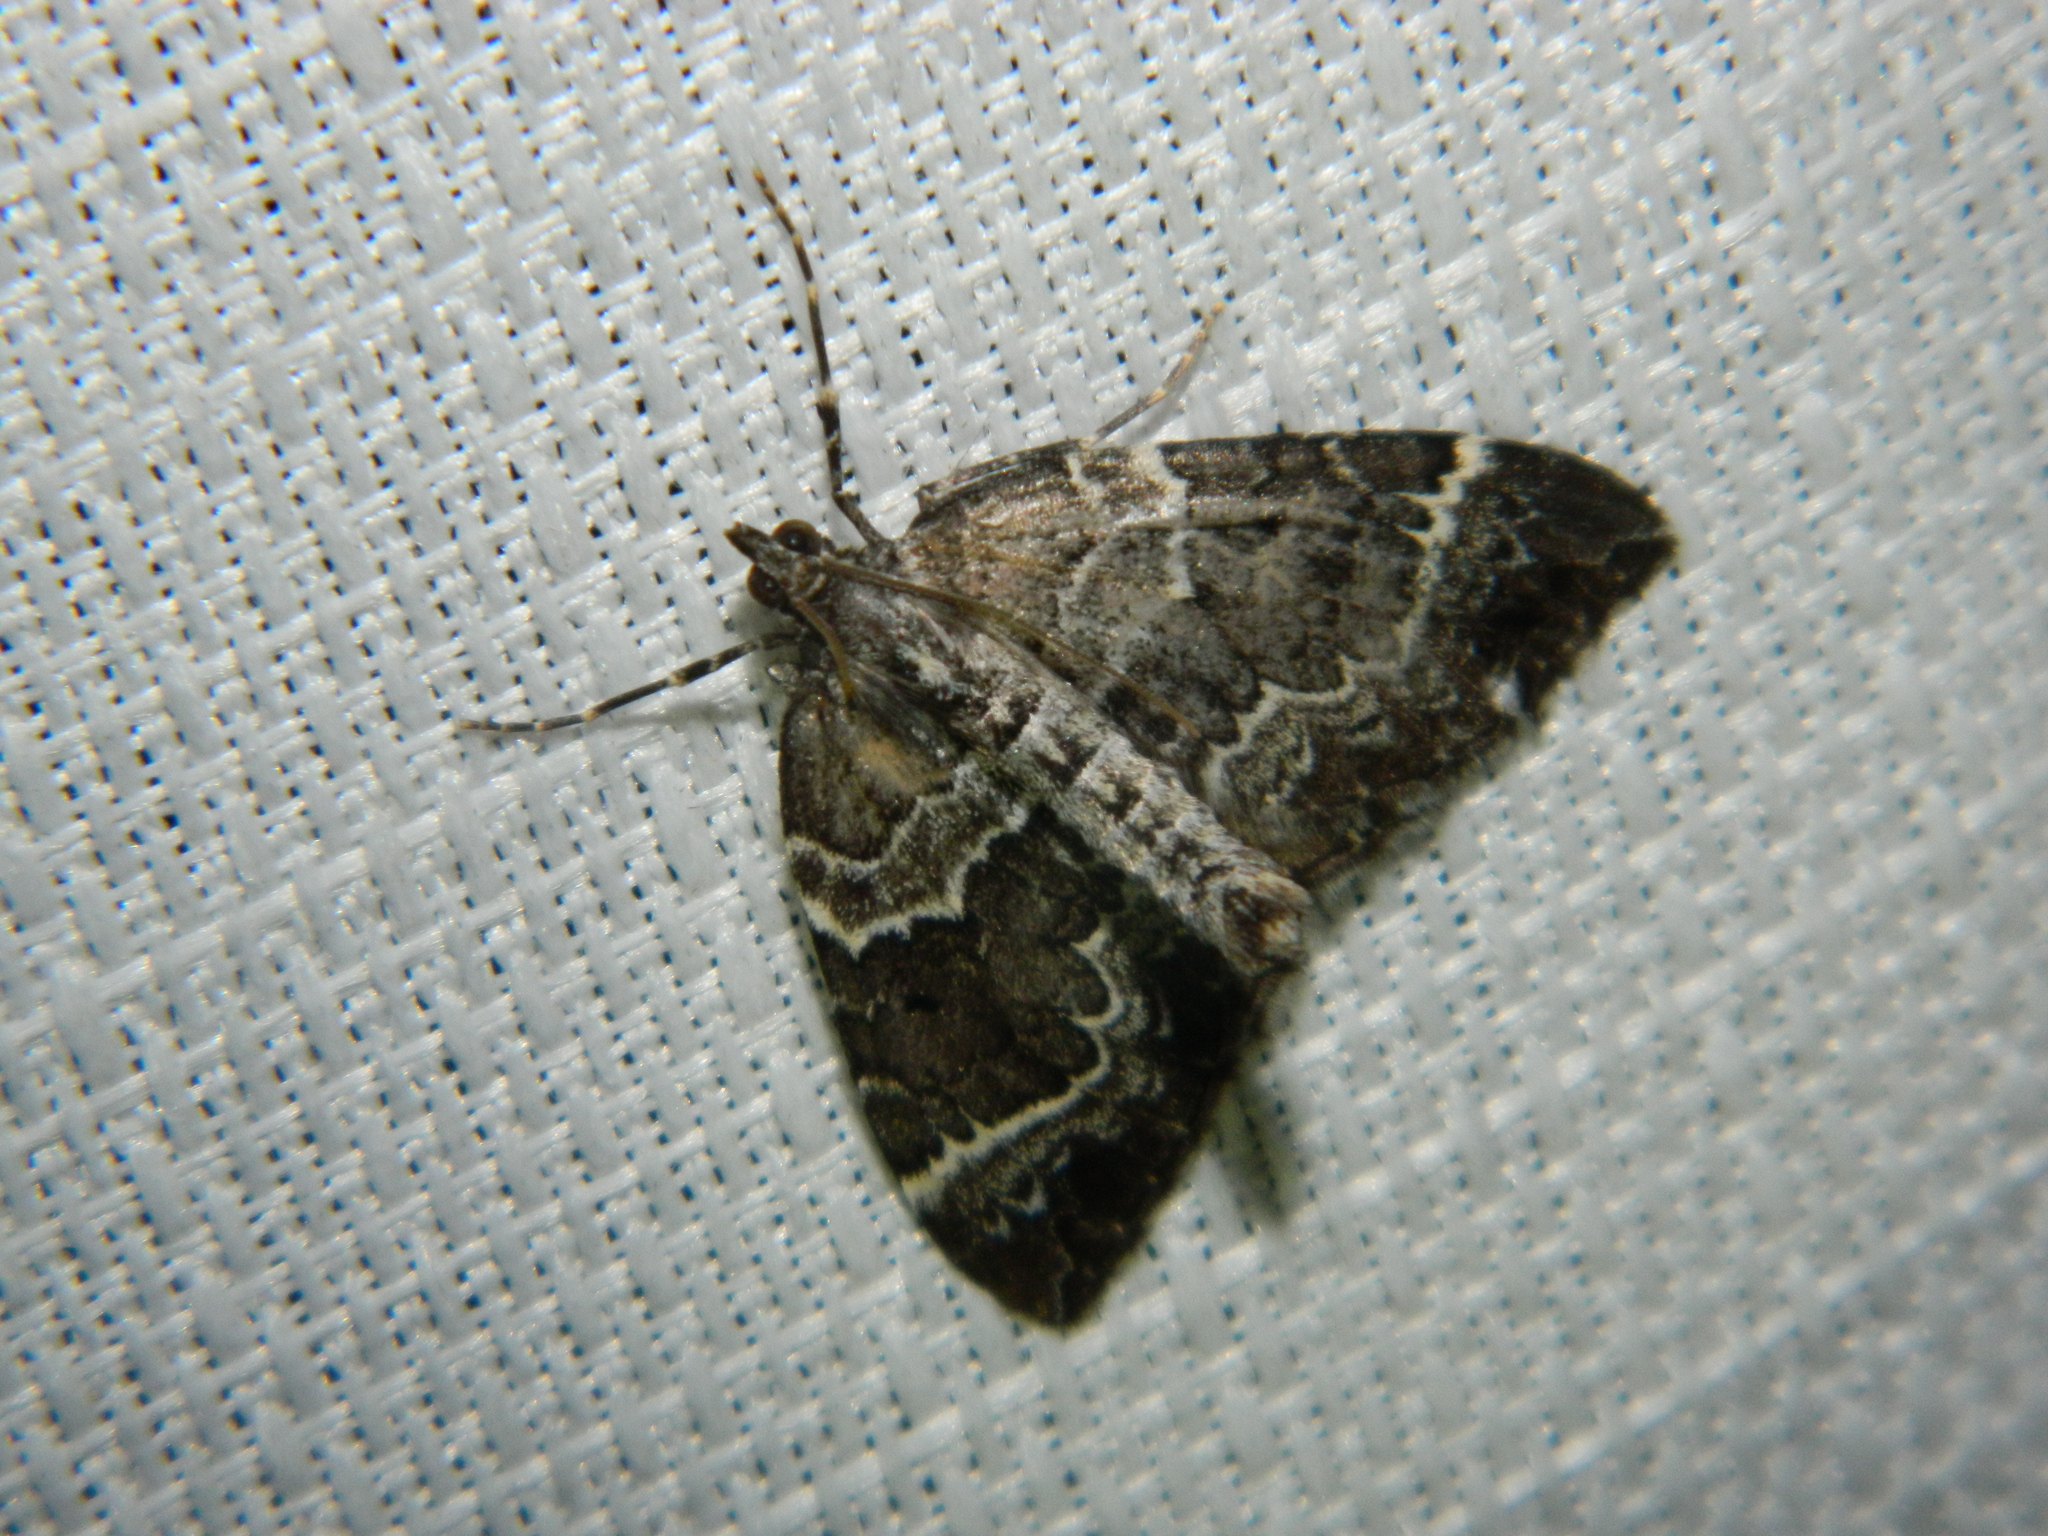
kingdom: Animalia
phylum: Arthropoda
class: Insecta
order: Lepidoptera
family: Geometridae
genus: Eulithis
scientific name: Eulithis explanata
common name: White eulithis
